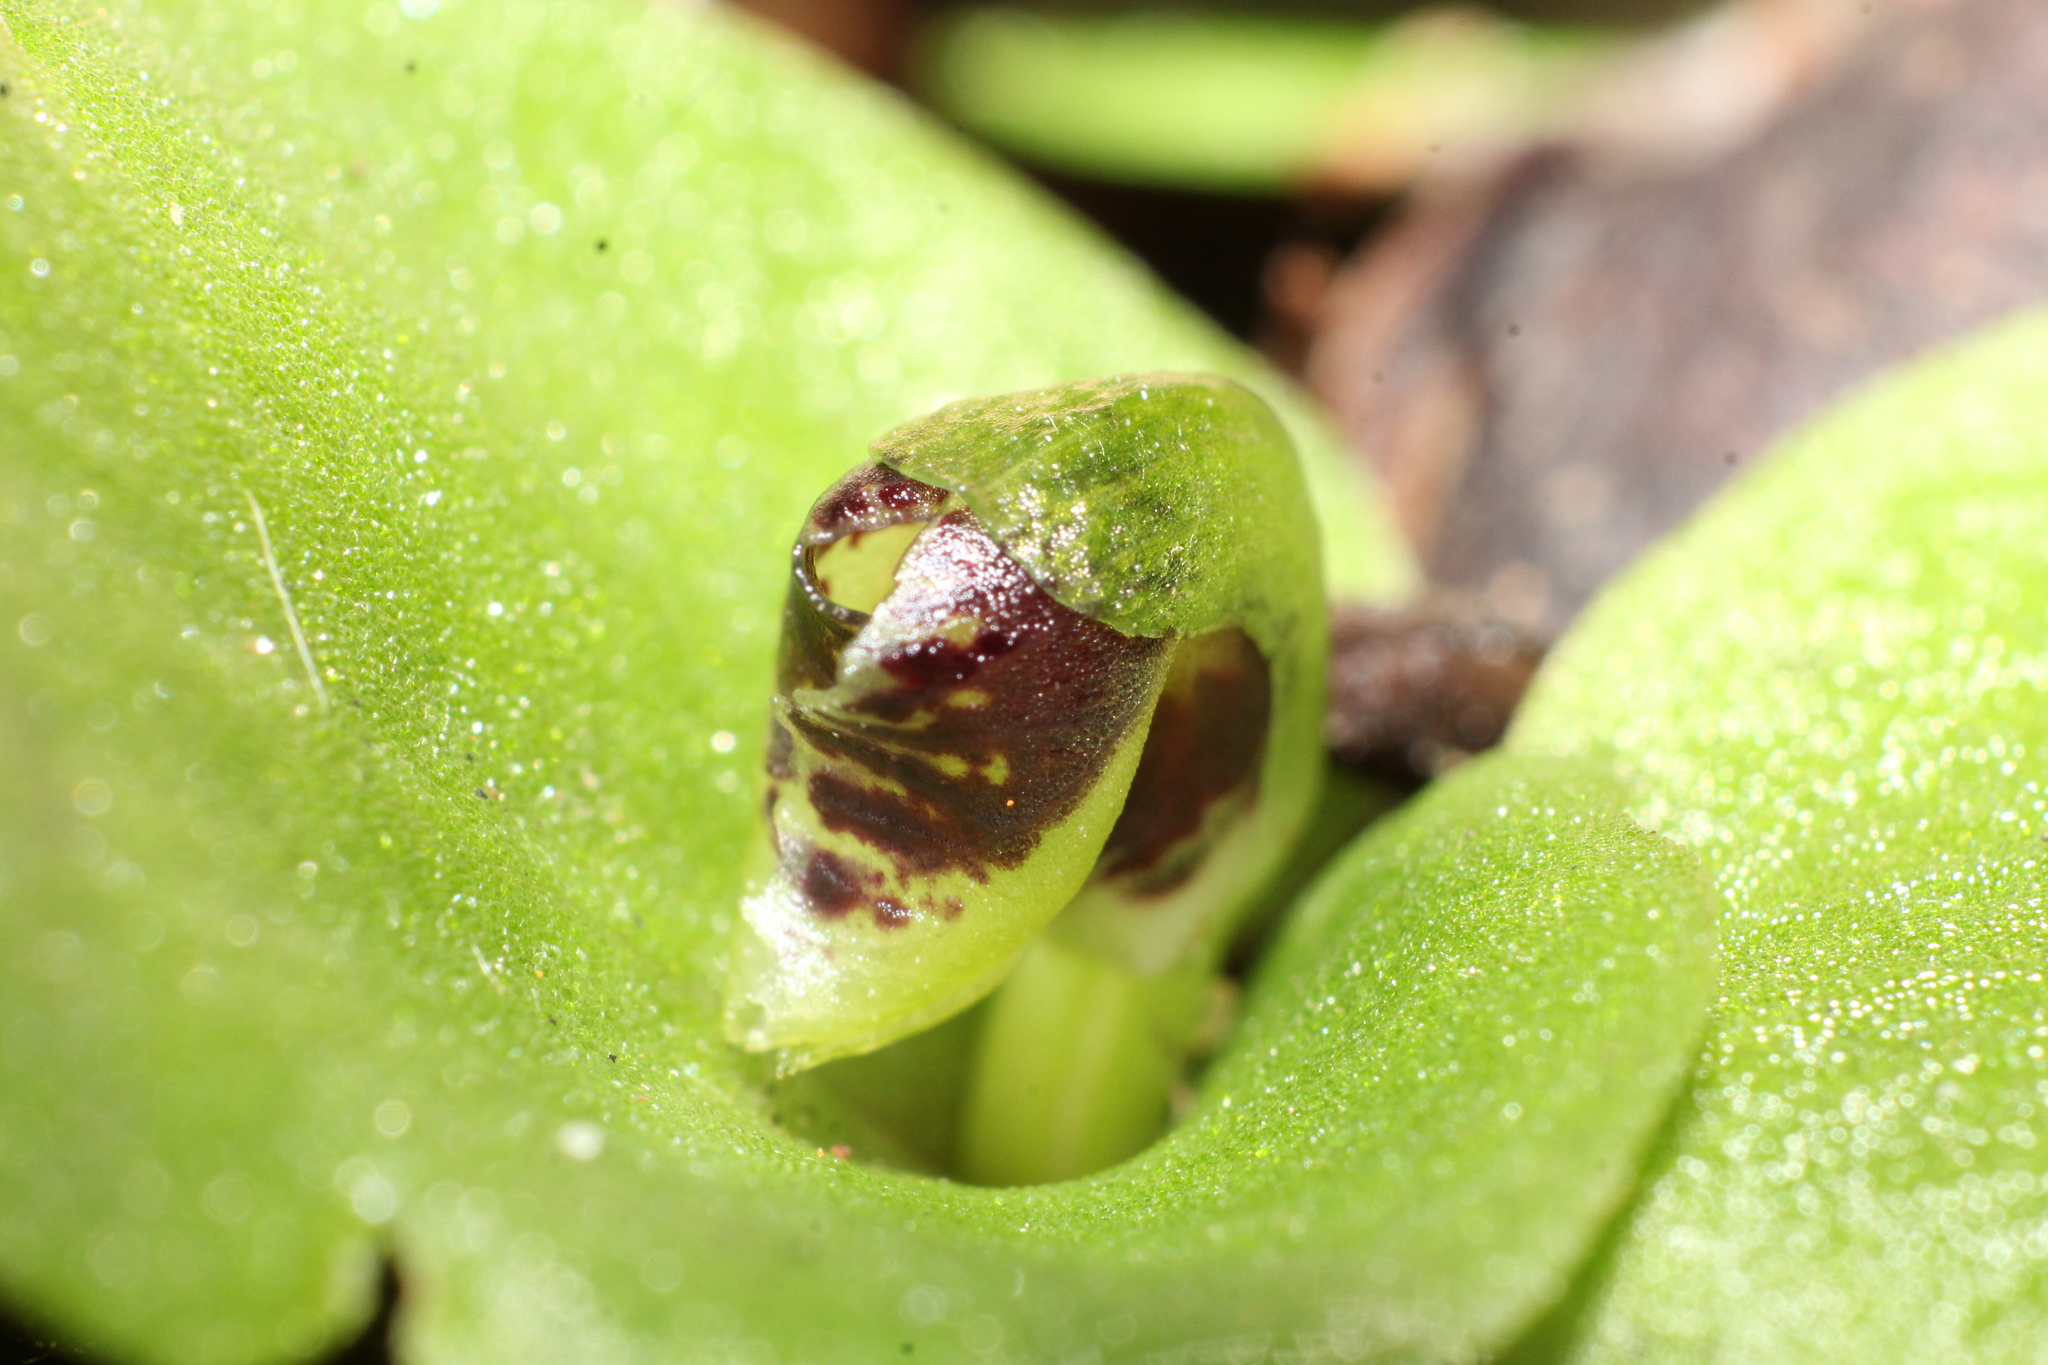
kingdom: Plantae
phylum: Tracheophyta
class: Liliopsida
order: Asparagales
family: Orchidaceae
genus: Corybas
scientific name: Corybas despectans
